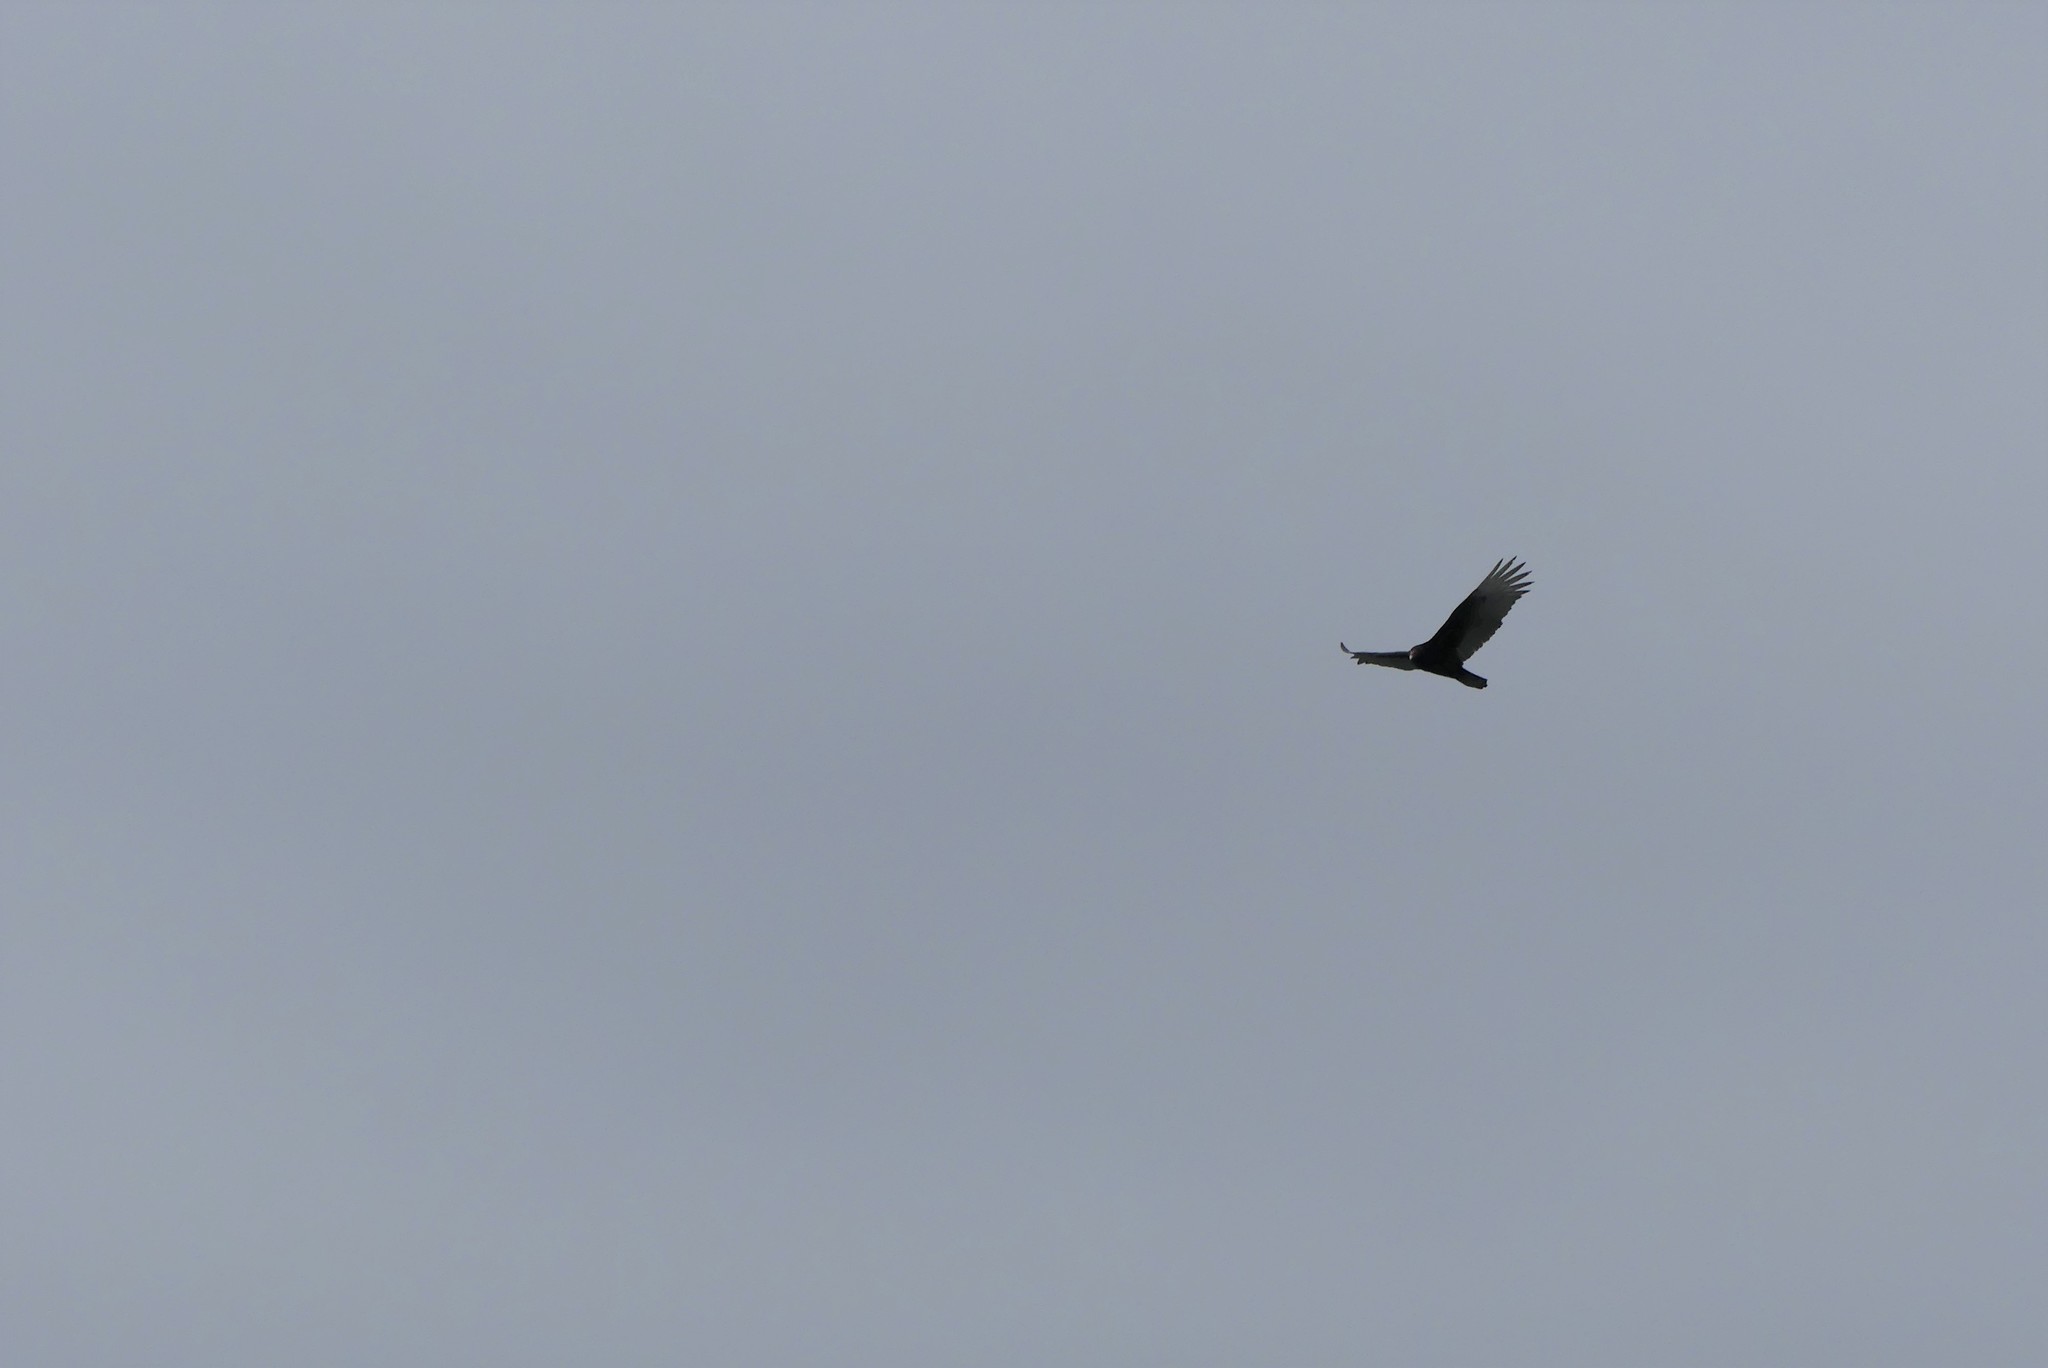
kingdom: Animalia
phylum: Chordata
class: Aves
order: Accipitriformes
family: Cathartidae
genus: Cathartes
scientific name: Cathartes aura
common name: Turkey vulture
